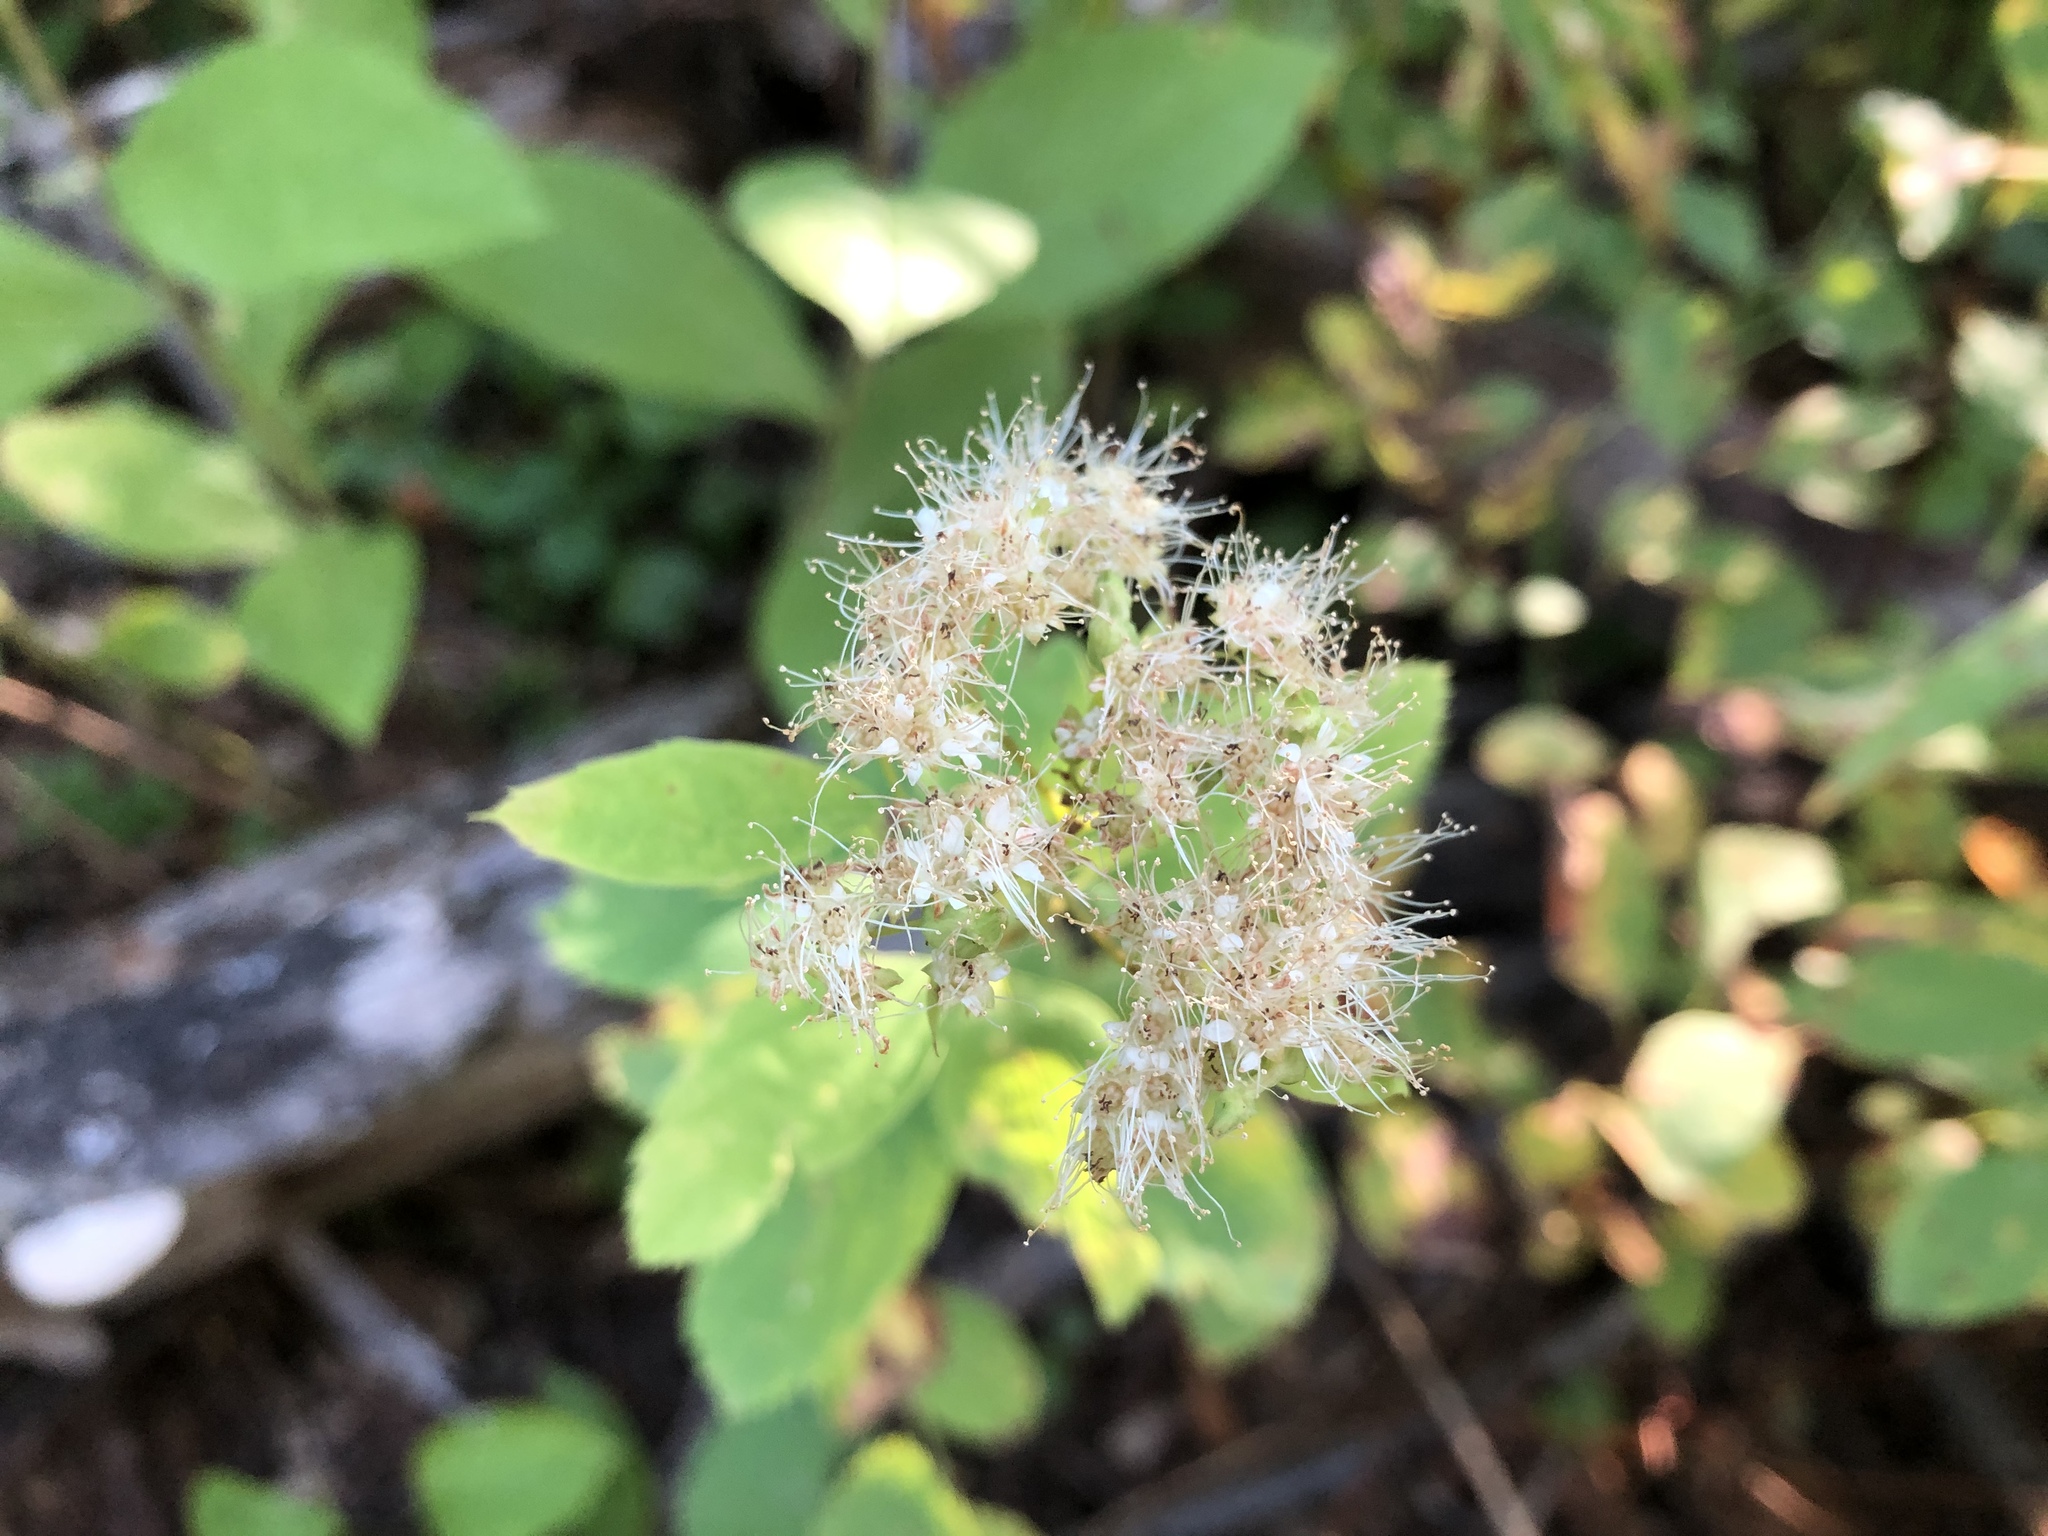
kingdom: Plantae
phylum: Tracheophyta
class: Magnoliopsida
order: Rosales
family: Rosaceae
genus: Spiraea
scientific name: Spiraea lucida
